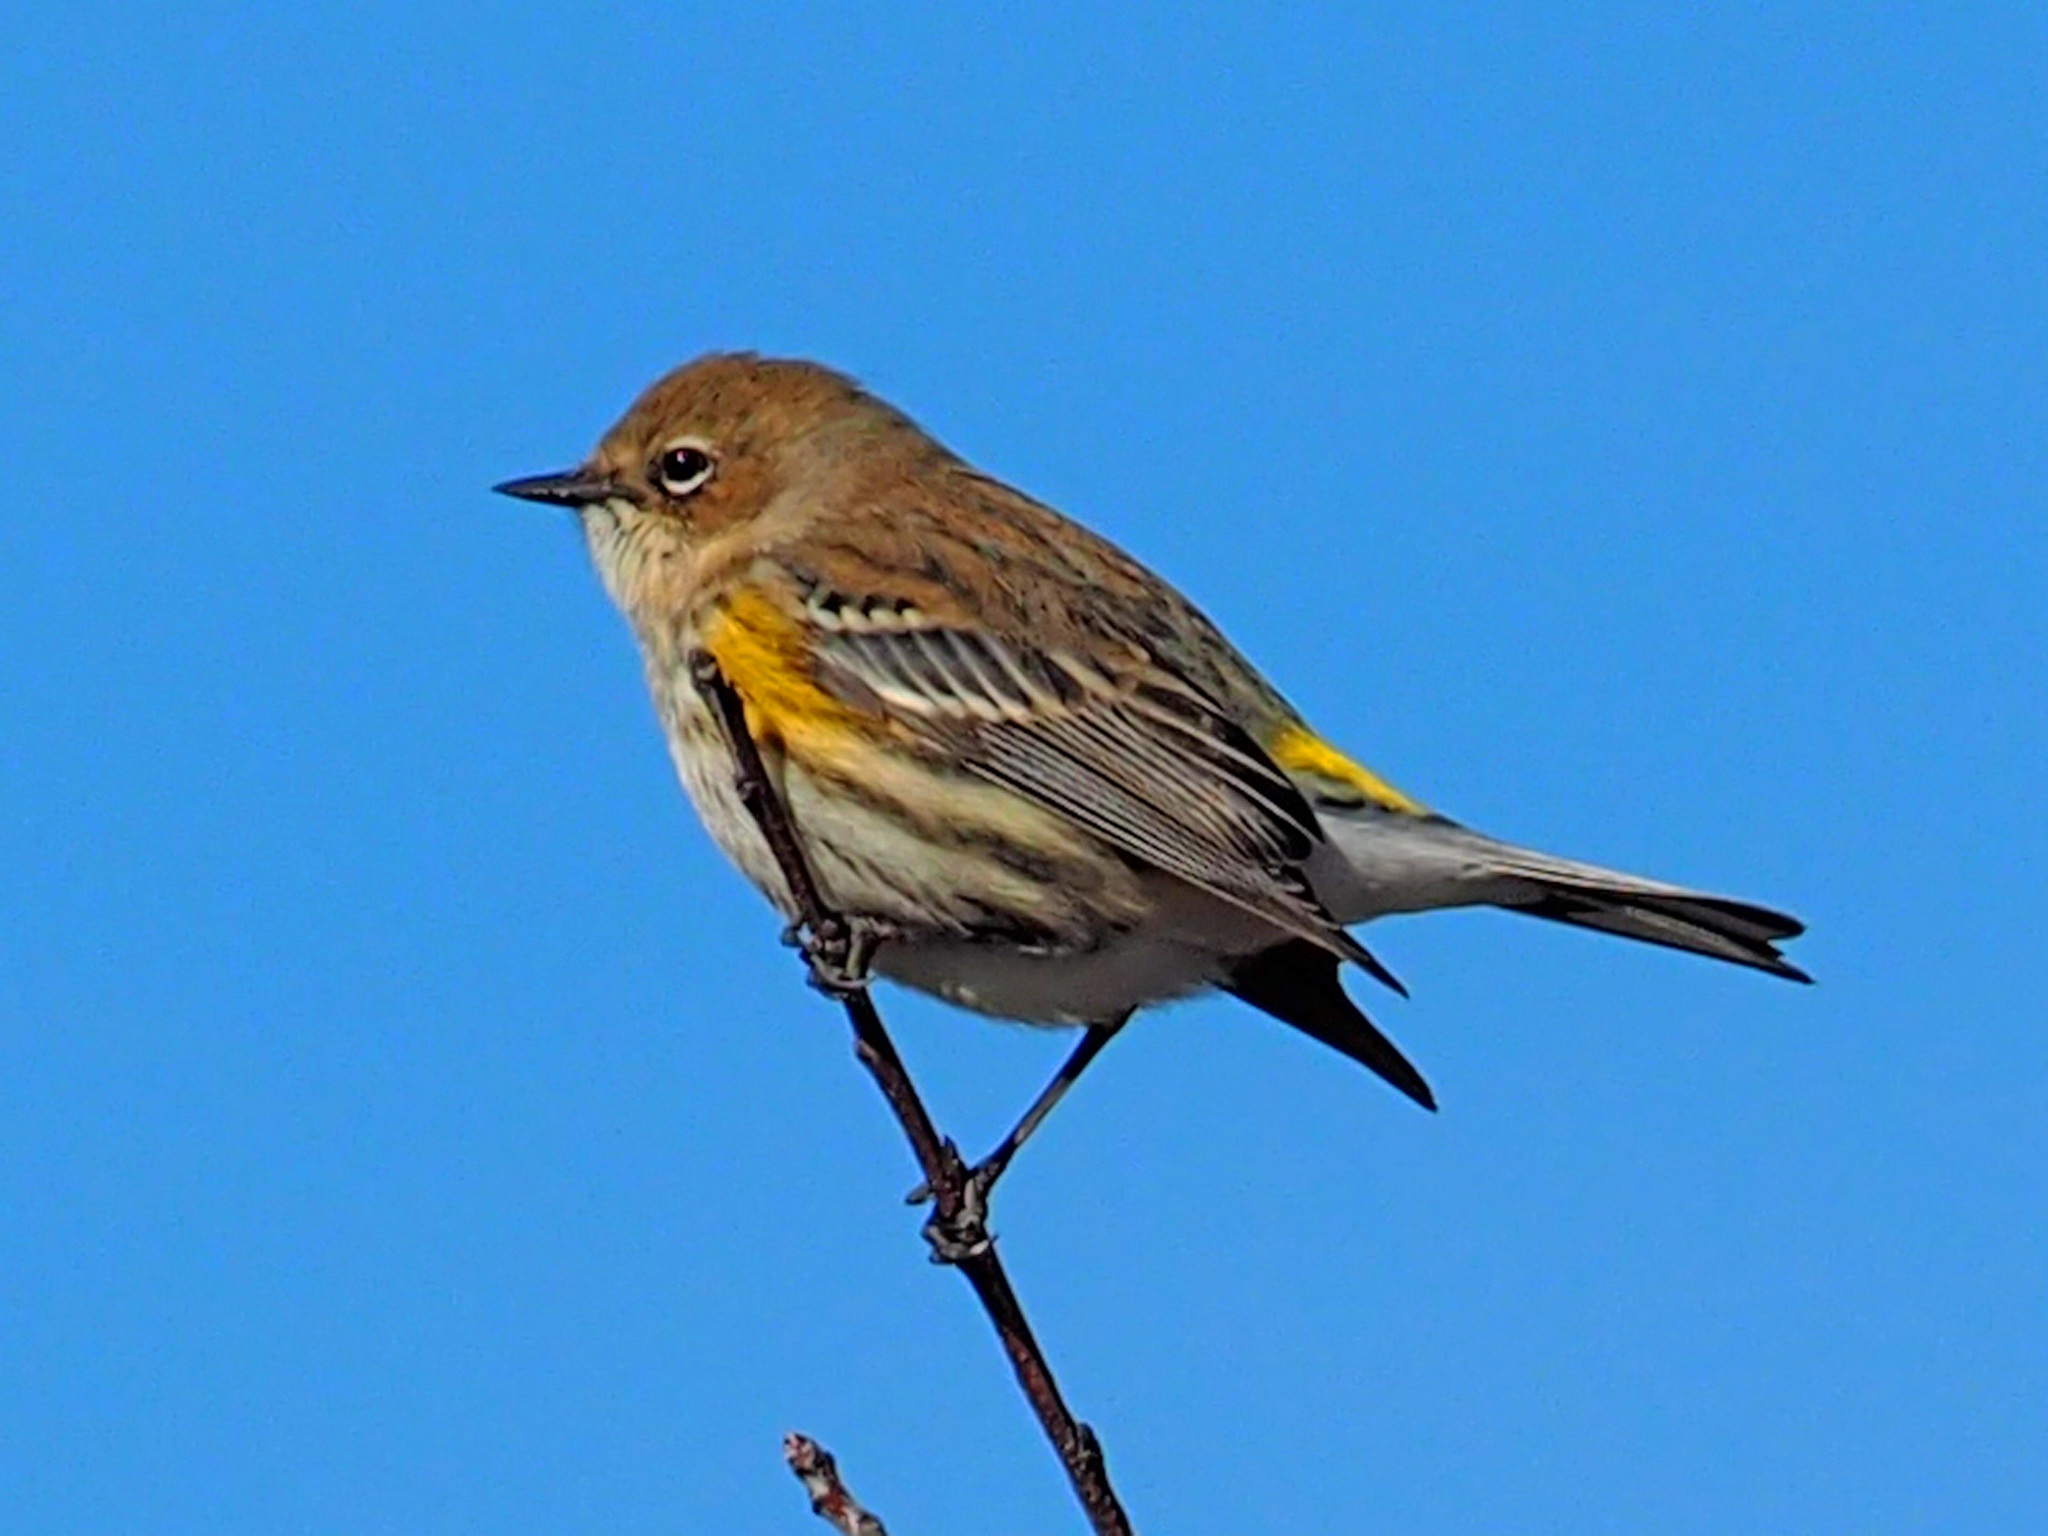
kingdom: Animalia
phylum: Chordata
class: Aves
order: Passeriformes
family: Parulidae
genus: Setophaga
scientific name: Setophaga coronata
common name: Myrtle warbler
